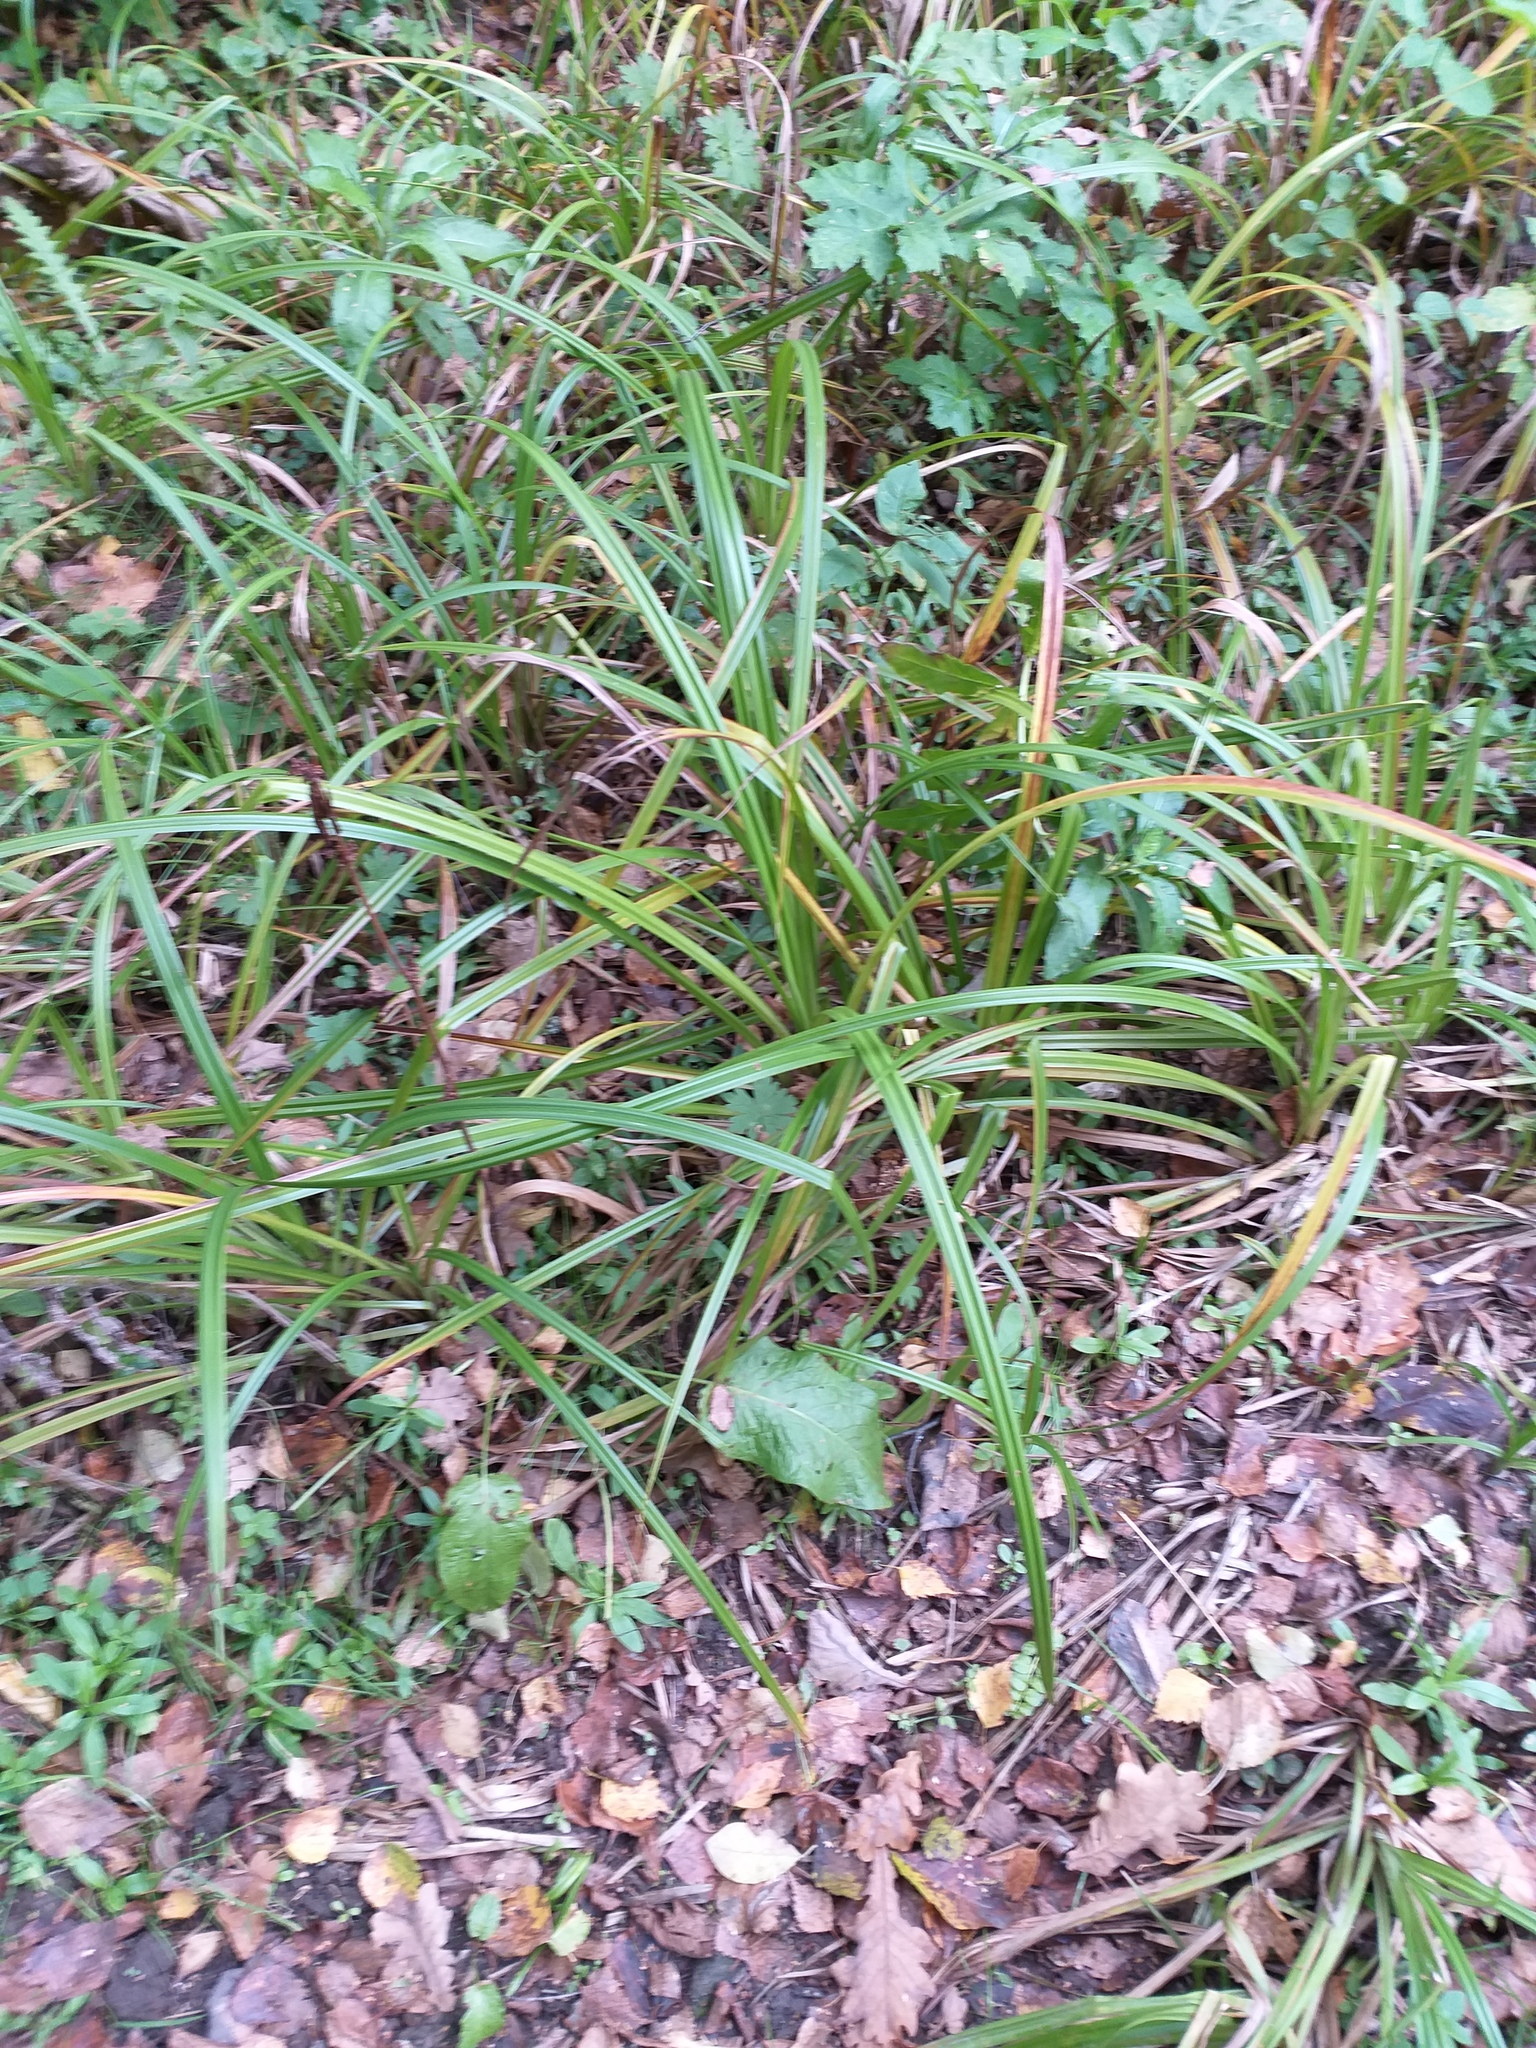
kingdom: Plantae
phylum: Tracheophyta
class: Liliopsida
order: Poales
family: Cyperaceae
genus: Scirpus
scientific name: Scirpus sylvaticus
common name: Wood club-rush
